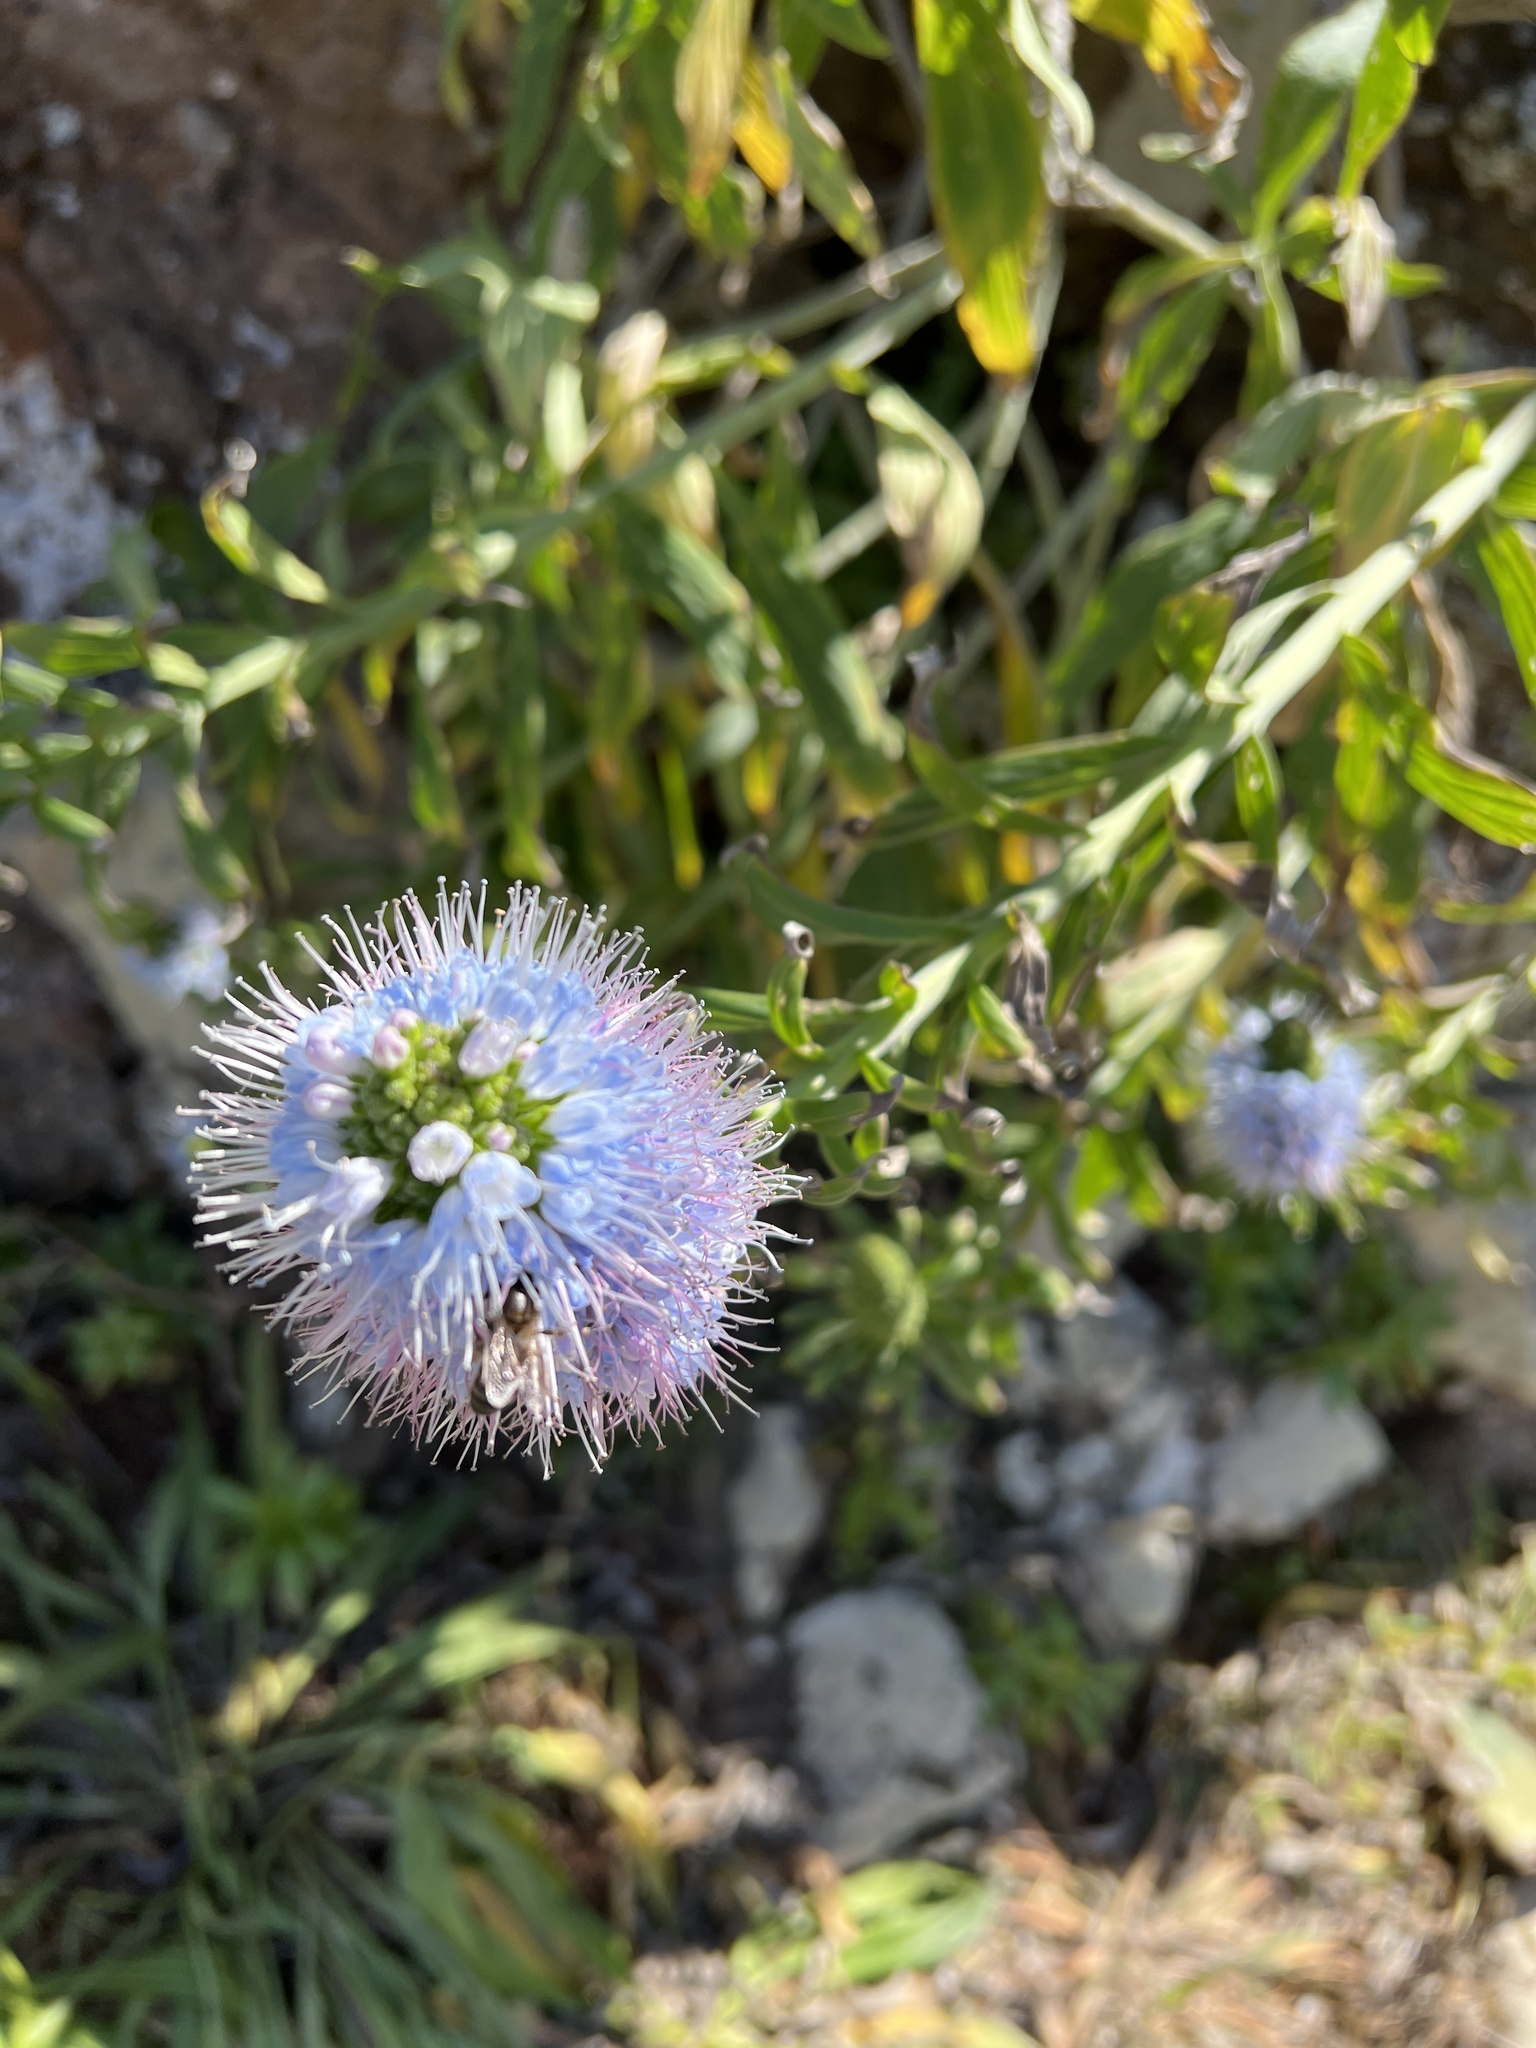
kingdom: Plantae
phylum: Tracheophyta
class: Magnoliopsida
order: Boraginales
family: Boraginaceae
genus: Echium
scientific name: Echium nervosum
